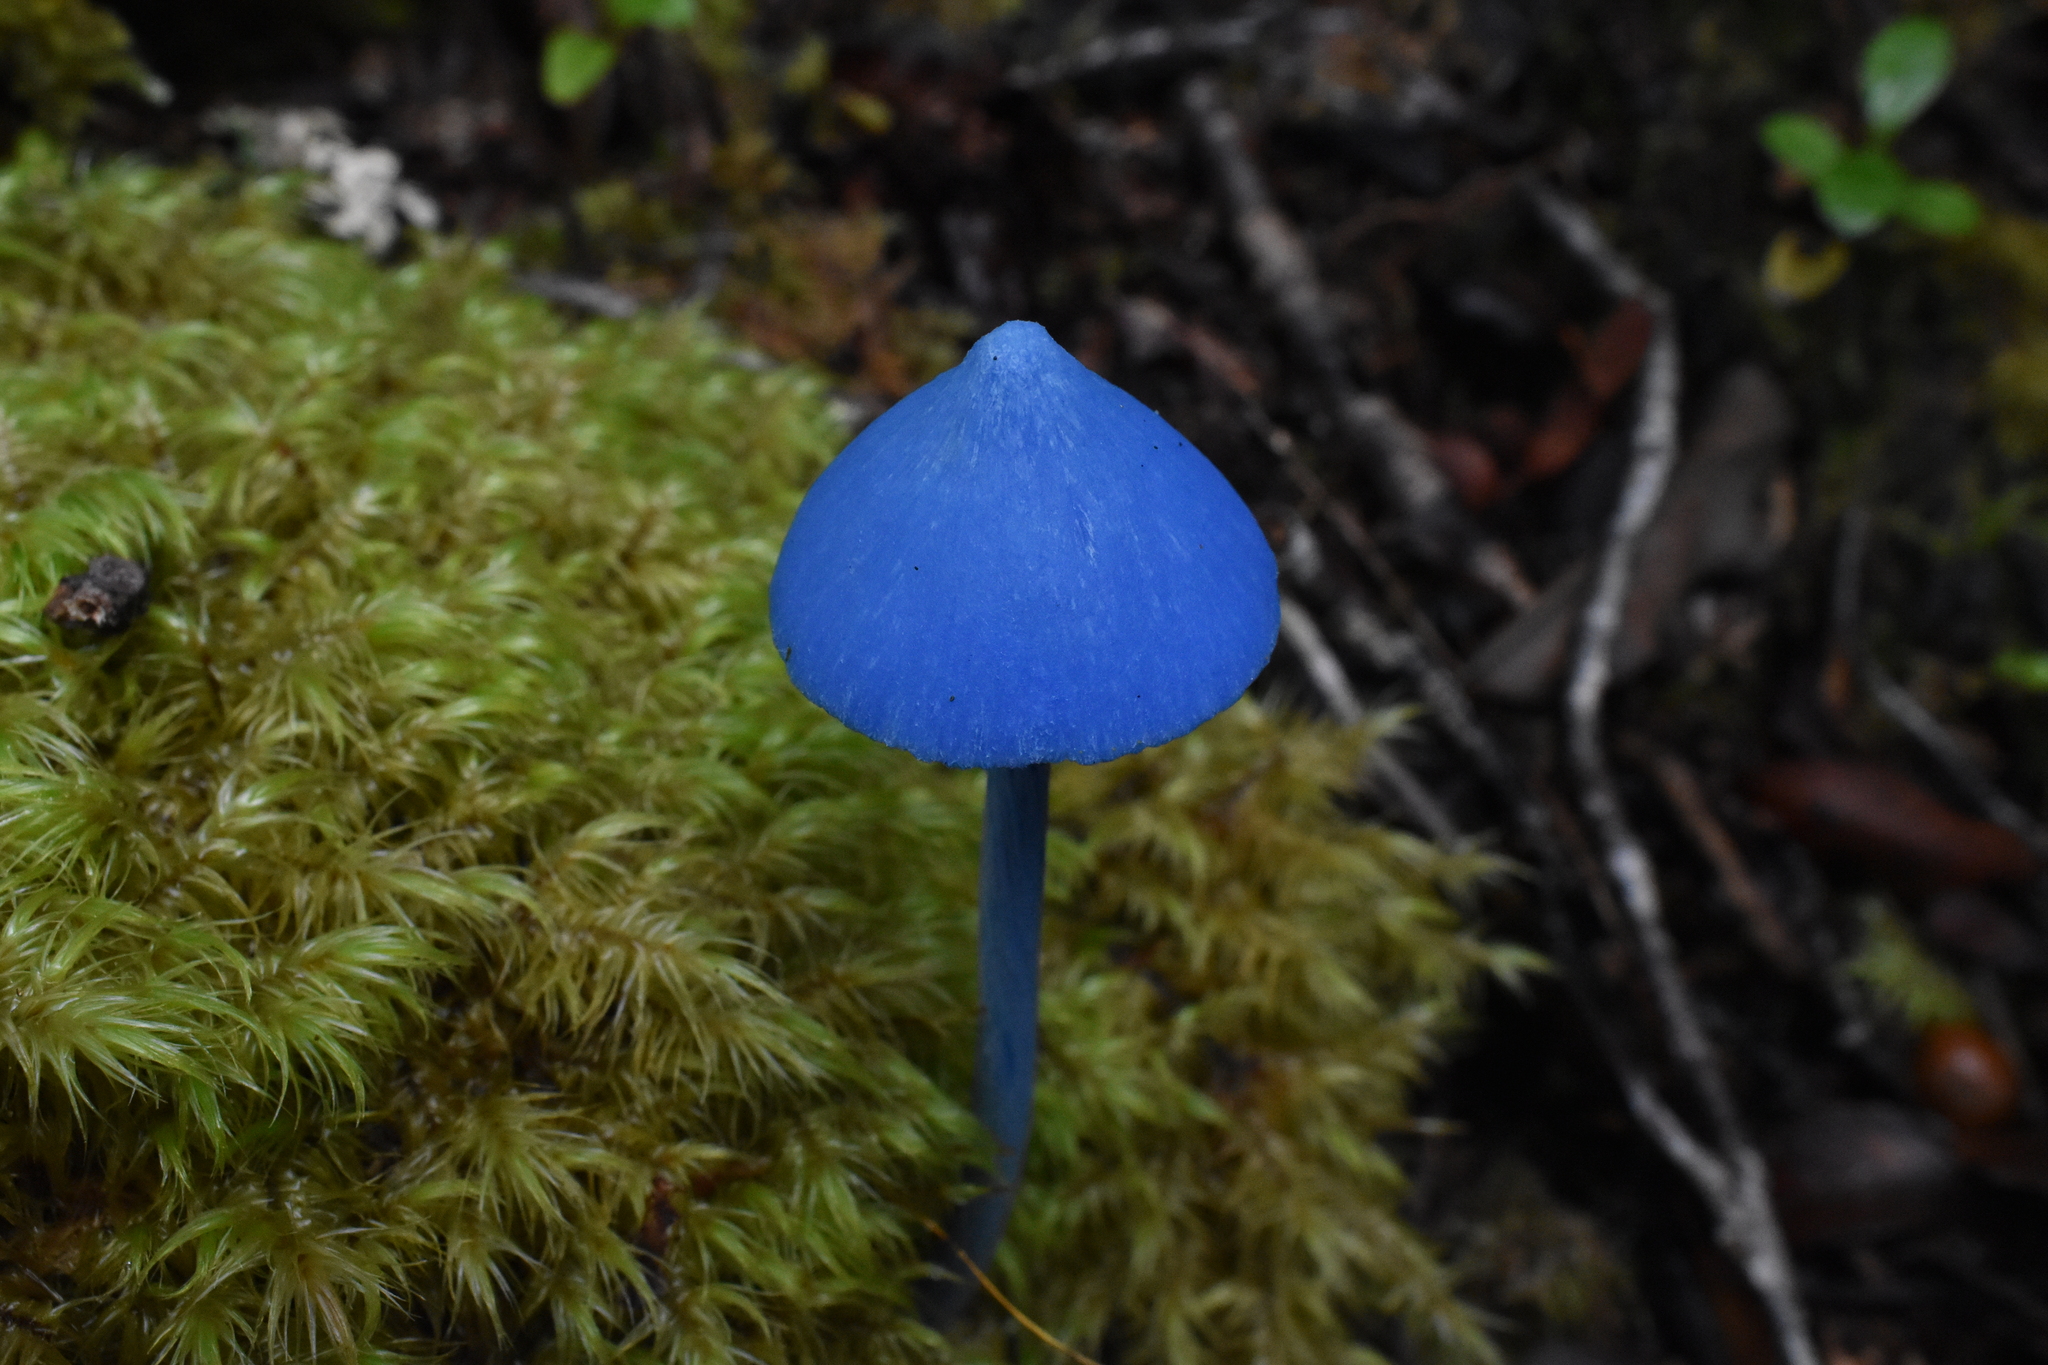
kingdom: Fungi
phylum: Basidiomycota
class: Agaricomycetes
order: Agaricales
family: Entolomataceae
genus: Entoloma
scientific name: Entoloma hochstetteri
